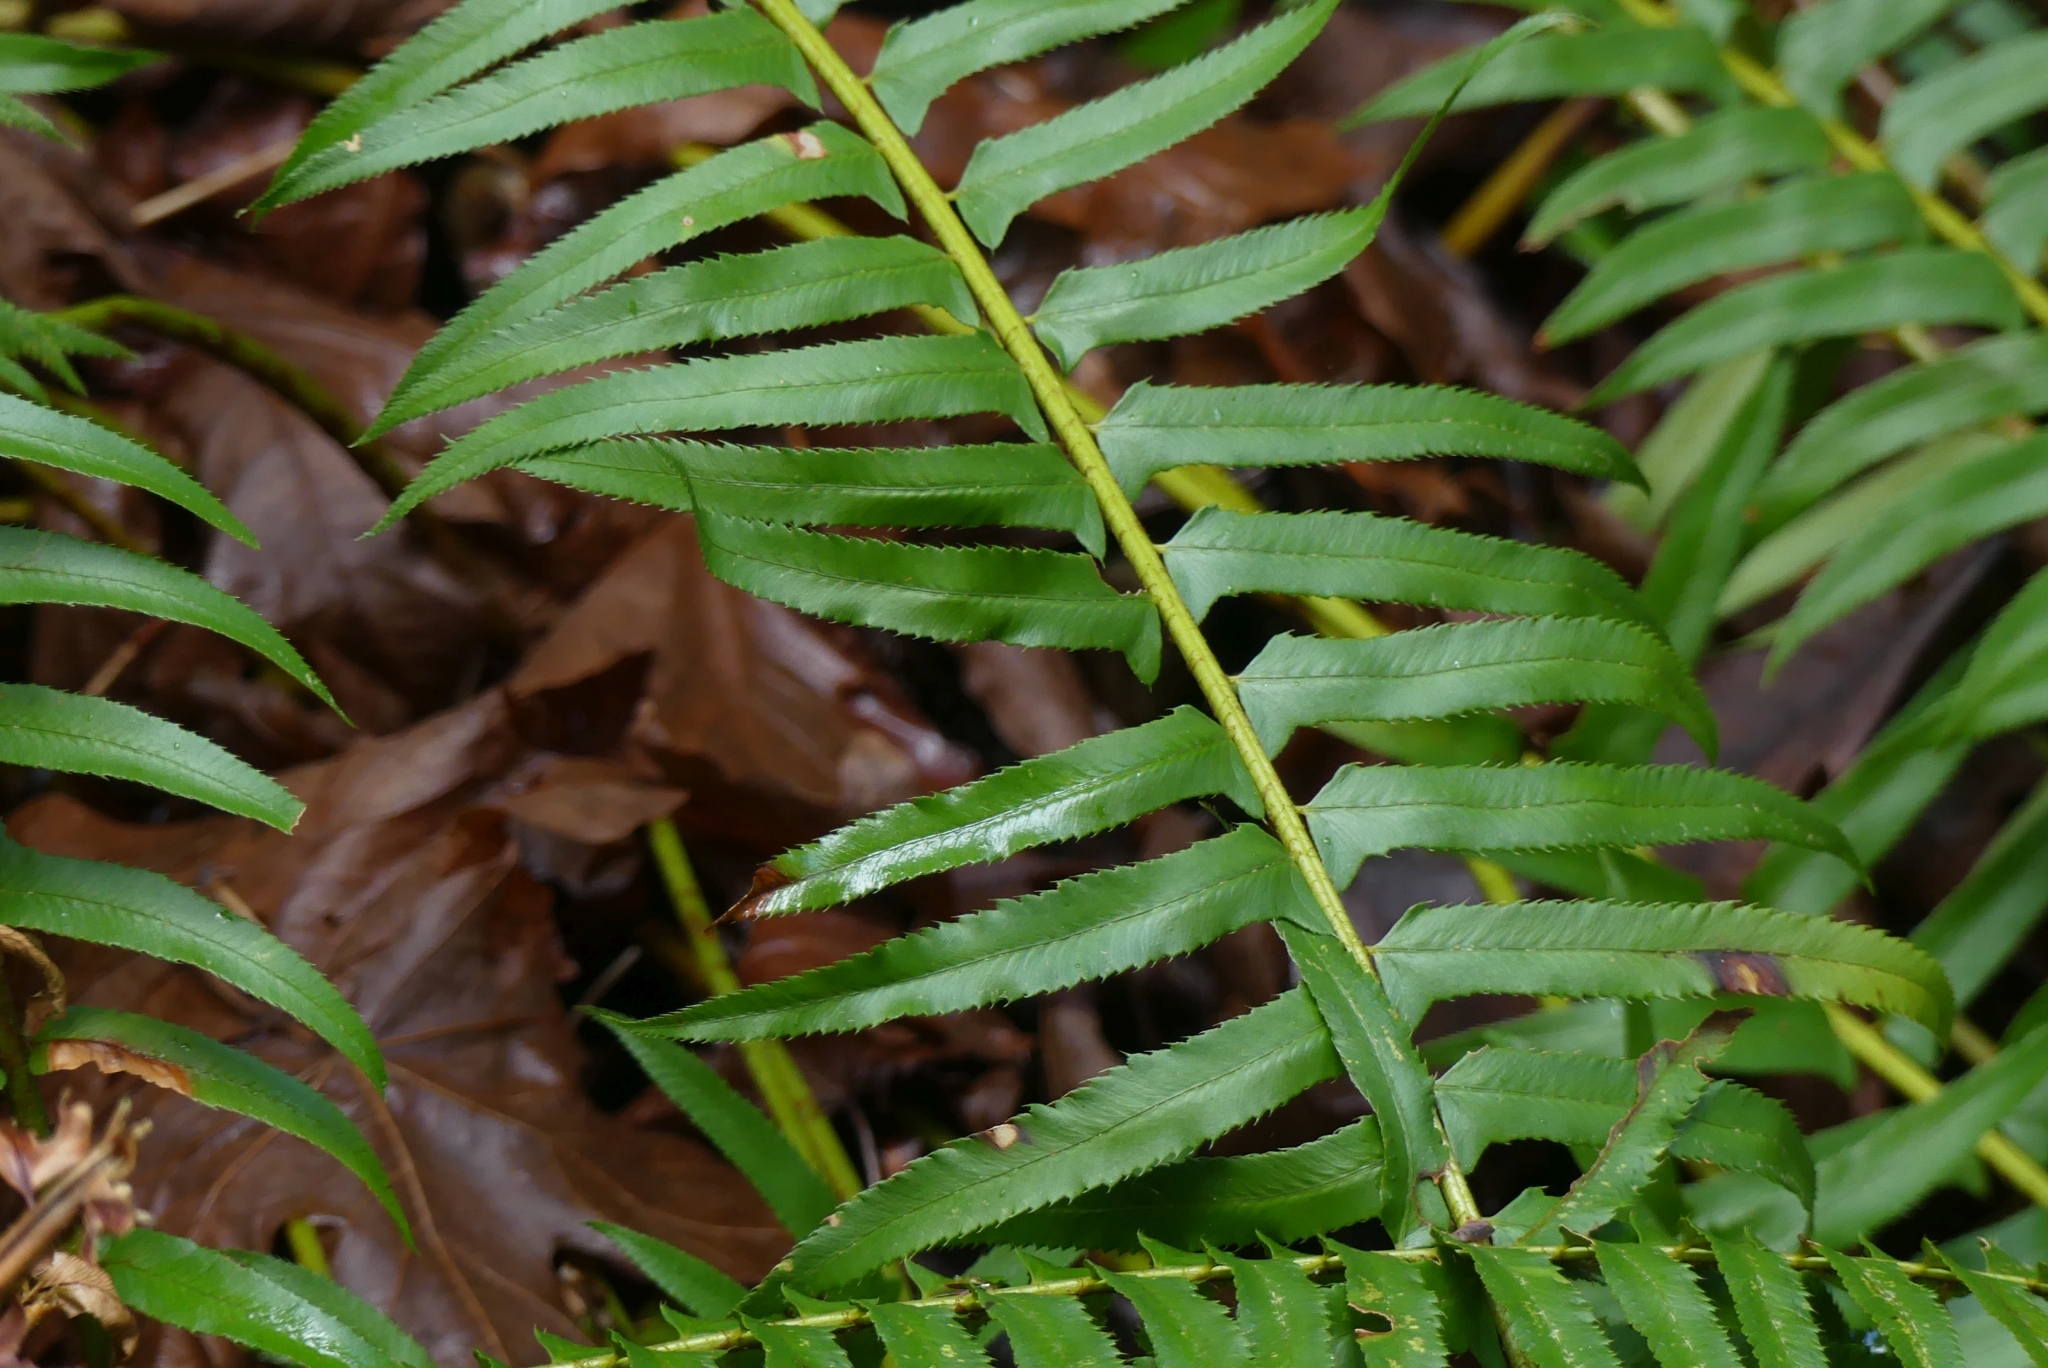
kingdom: Plantae
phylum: Tracheophyta
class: Polypodiopsida
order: Polypodiales
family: Dryopteridaceae
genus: Polystichum
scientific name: Polystichum munitum
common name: Western sword-fern
